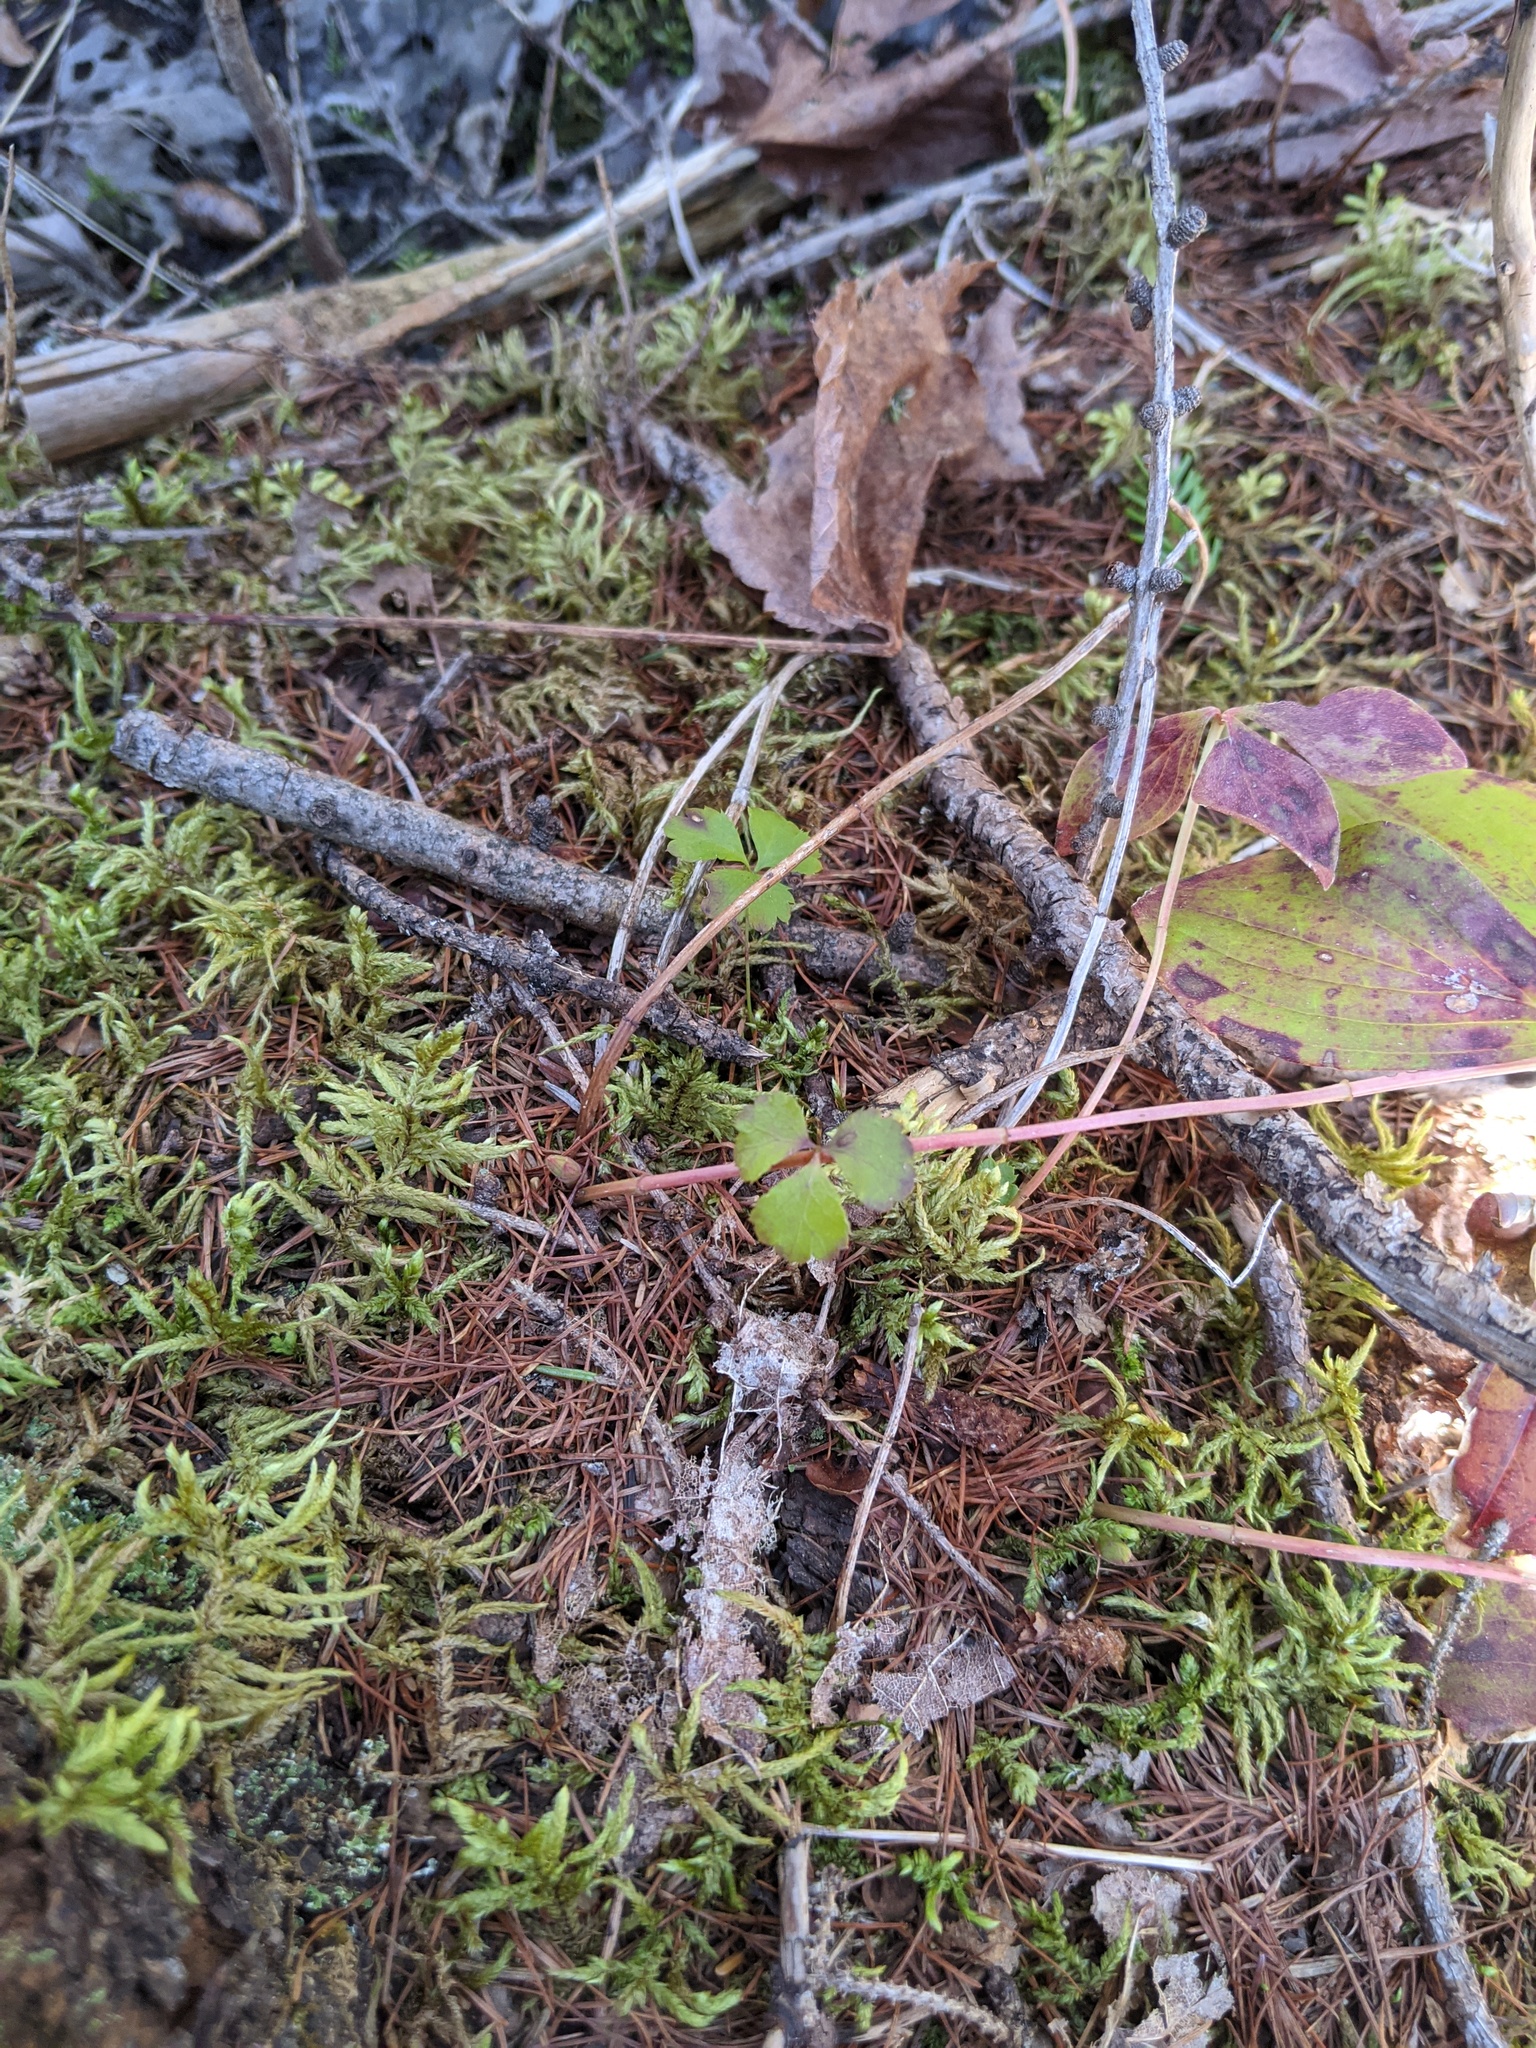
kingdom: Plantae
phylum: Tracheophyta
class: Magnoliopsida
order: Ranunculales
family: Ranunculaceae
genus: Coptis
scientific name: Coptis trifolia
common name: Canker-root
